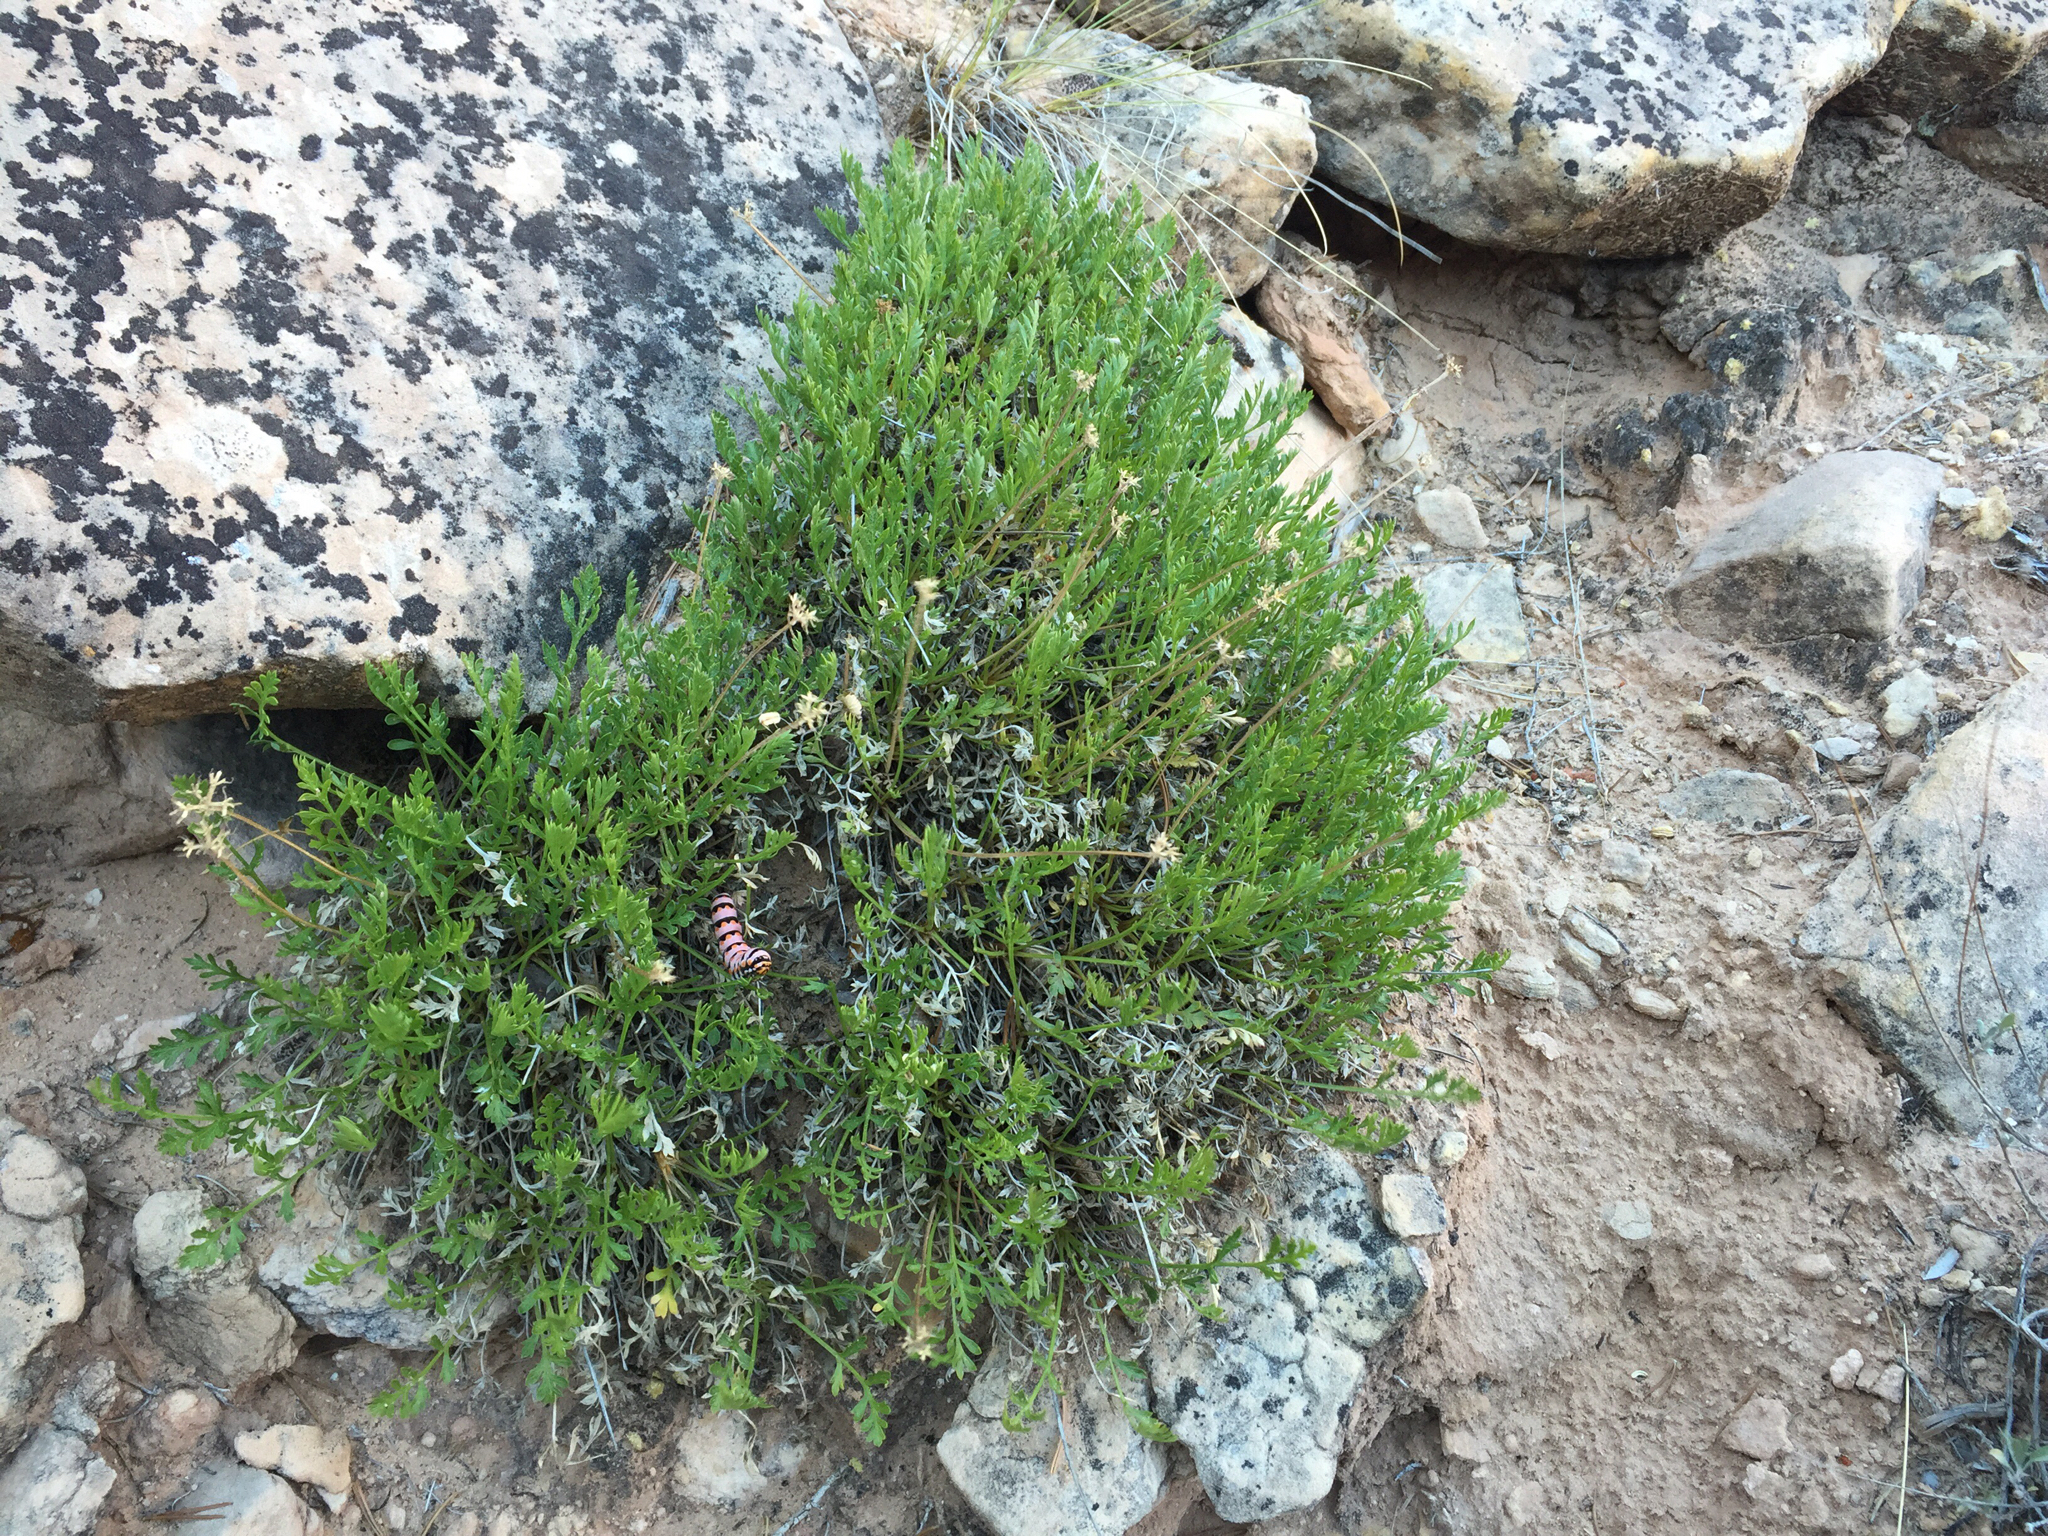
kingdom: Animalia
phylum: Arthropoda
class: Insecta
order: Lepidoptera
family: Papilionidae
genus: Papilio
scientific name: Papilio indra
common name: Cliff swallowtail
